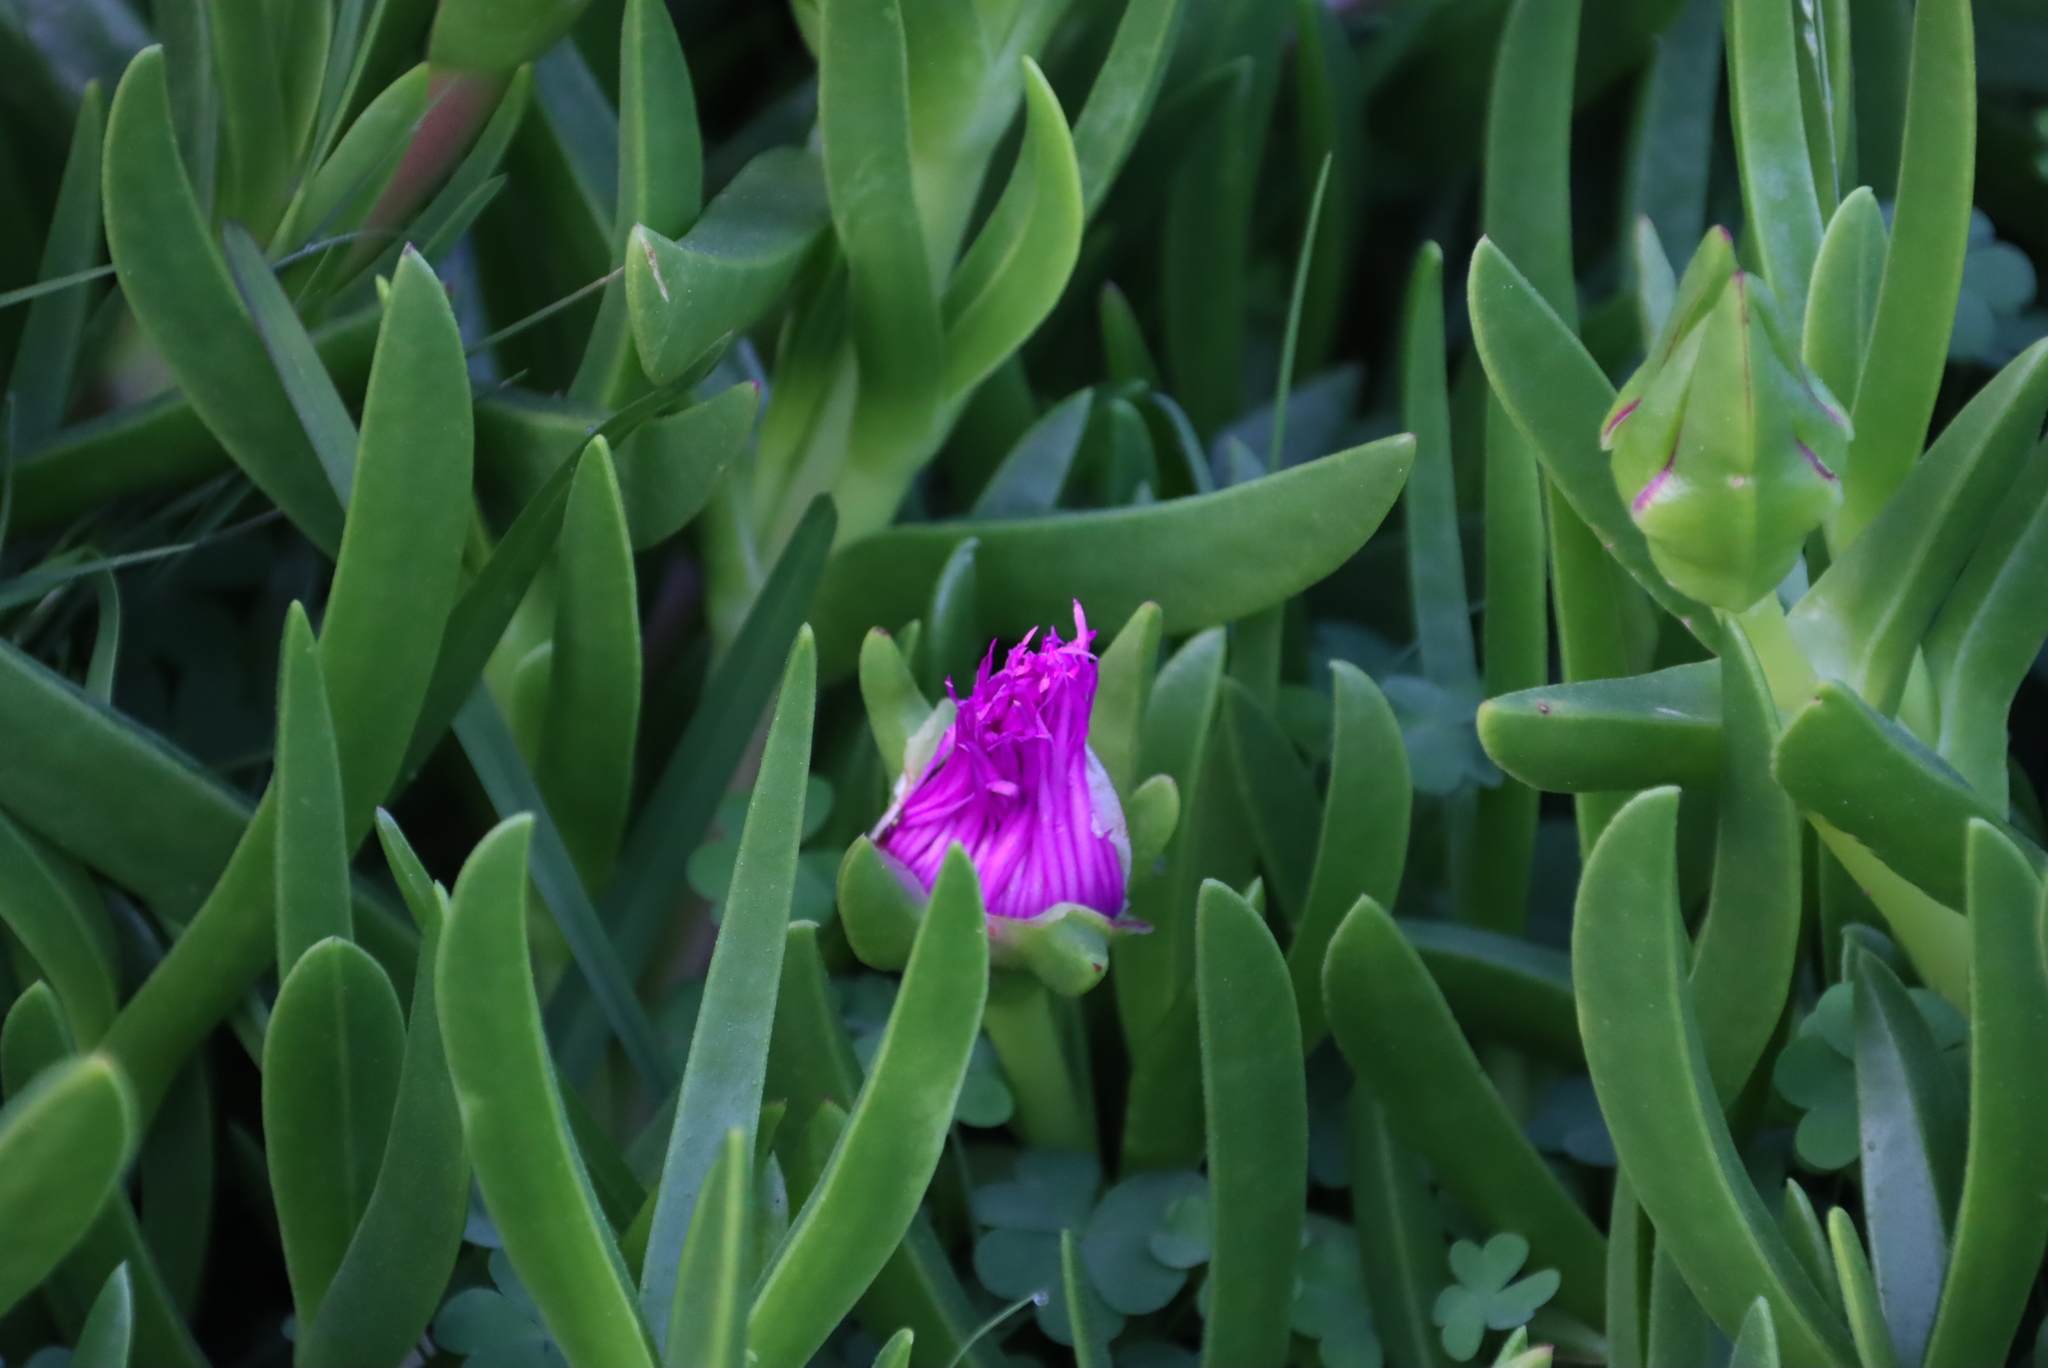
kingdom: Plantae
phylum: Tracheophyta
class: Magnoliopsida
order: Caryophyllales
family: Aizoaceae
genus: Carpobrotus
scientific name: Carpobrotus deliciosus
